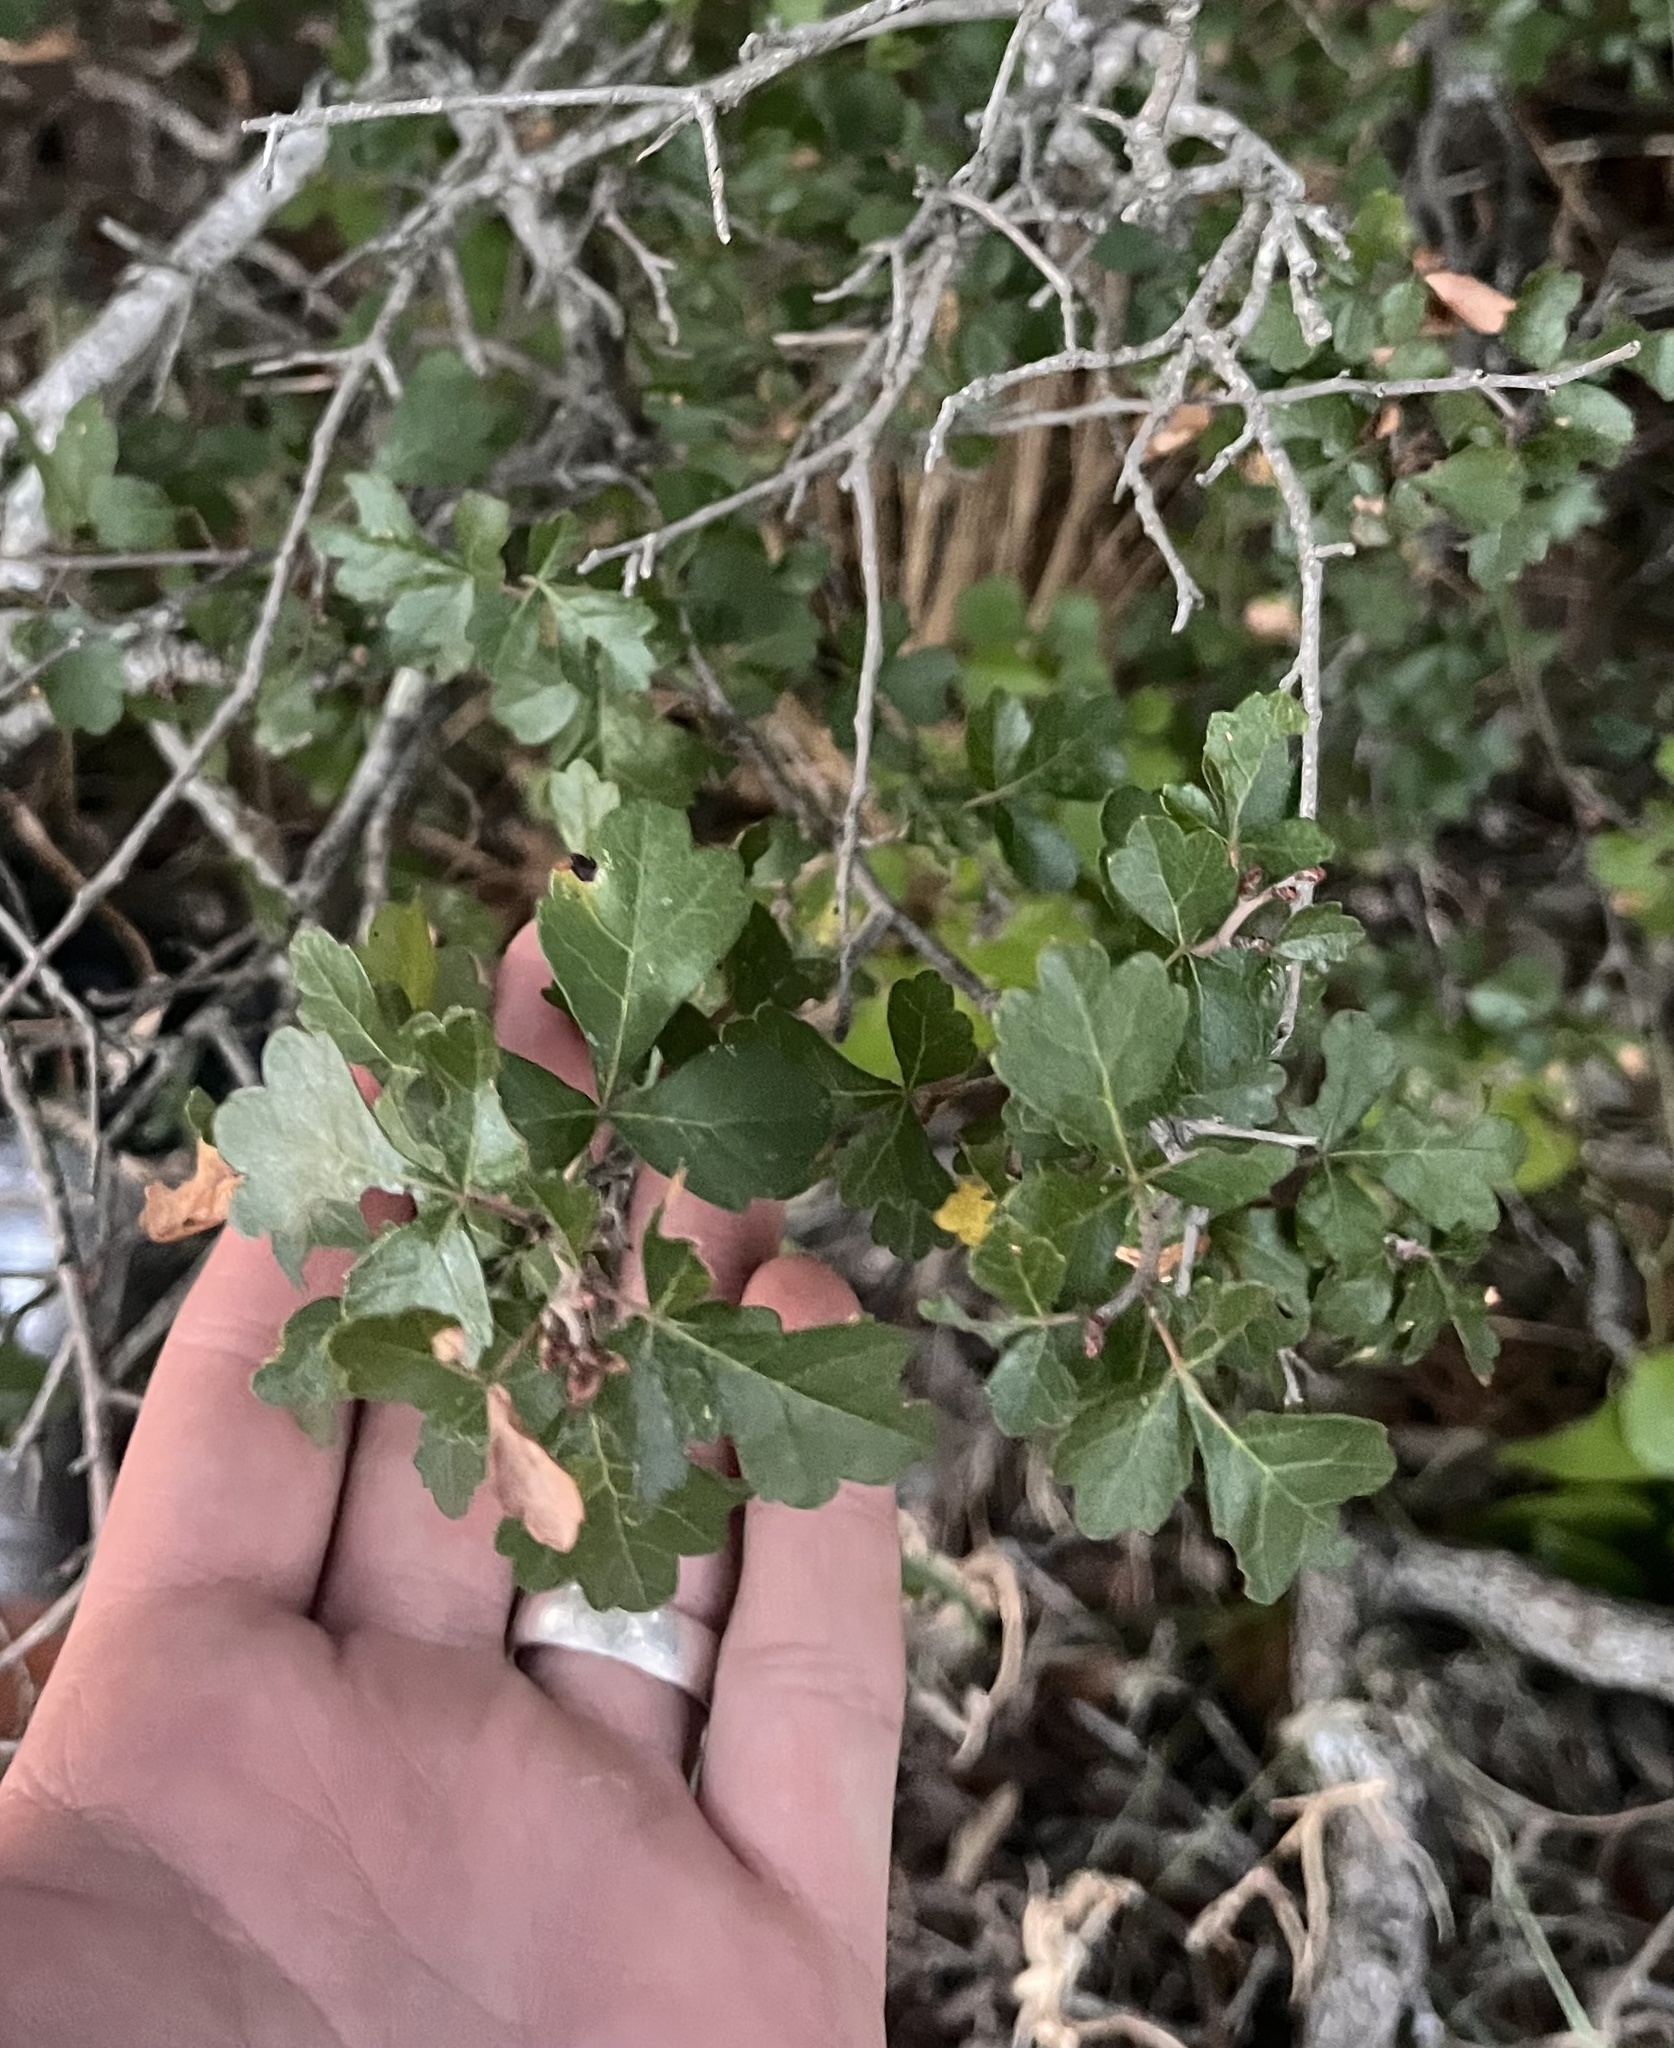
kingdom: Plantae
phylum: Tracheophyta
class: Magnoliopsida
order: Sapindales
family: Anacardiaceae
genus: Rhus
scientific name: Rhus trilobata
